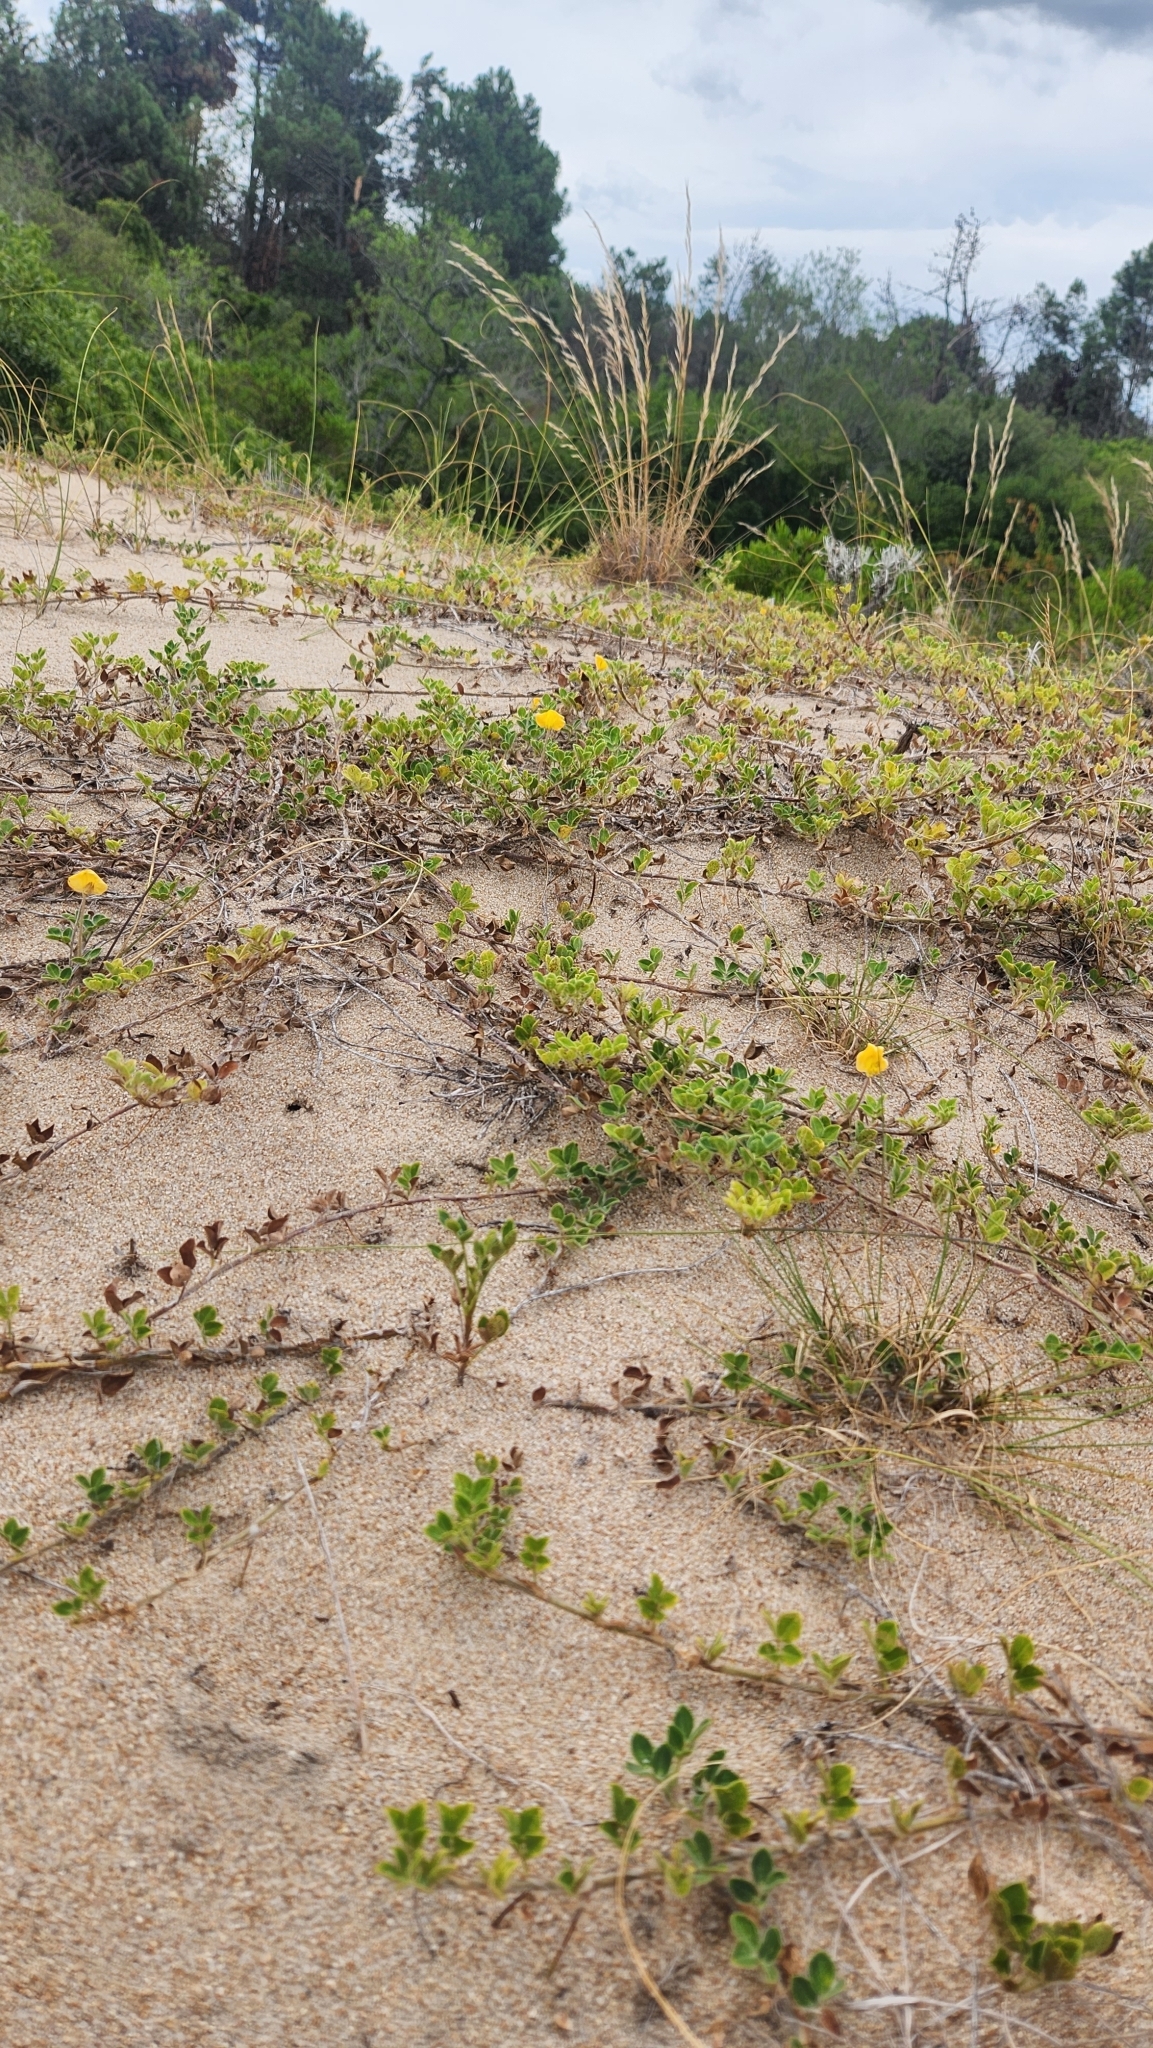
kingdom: Plantae
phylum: Tracheophyta
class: Magnoliopsida
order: Fabales
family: Fabaceae
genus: Arachis
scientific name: Arachis villosa
